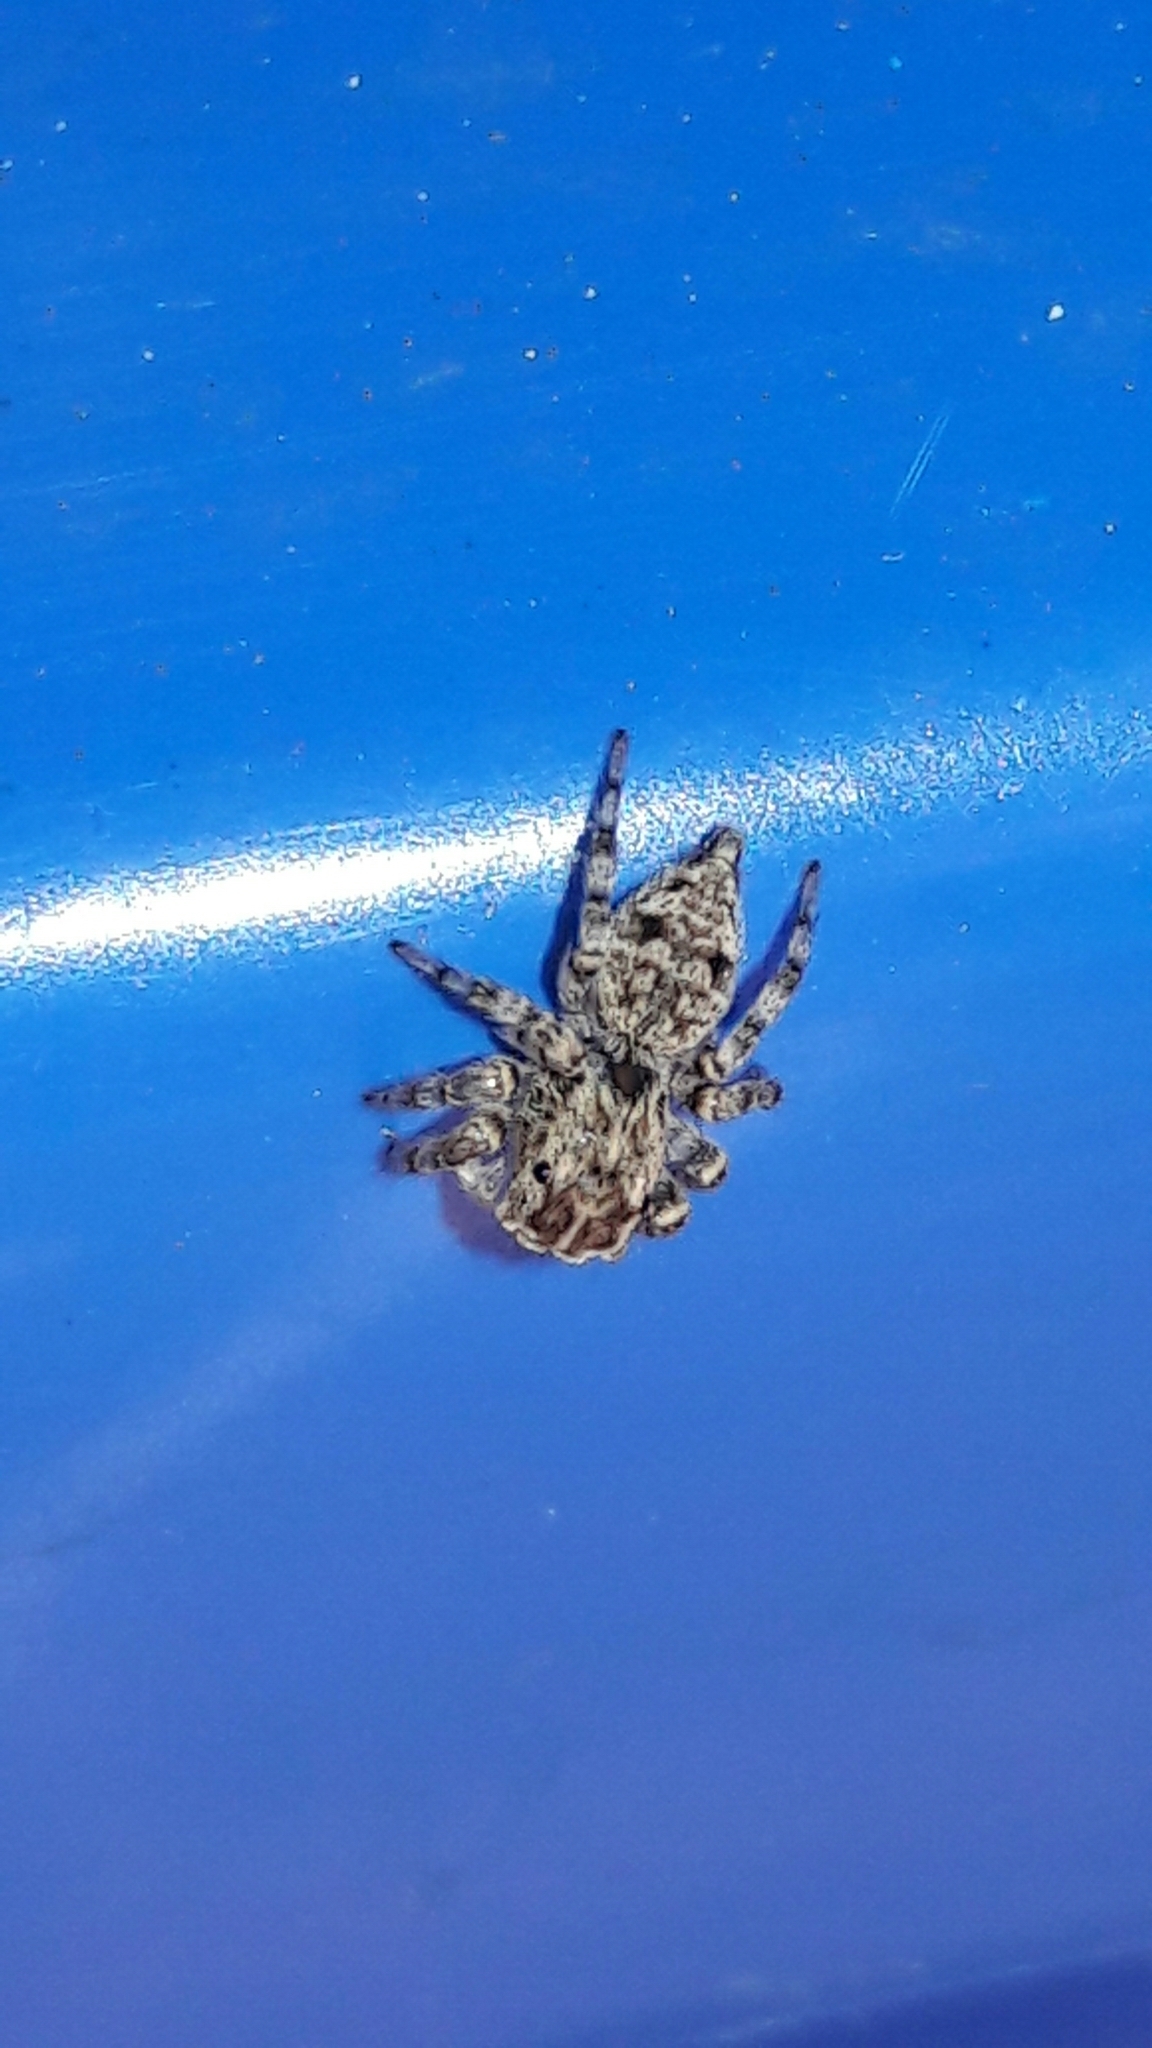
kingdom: Animalia
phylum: Arthropoda
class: Arachnida
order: Araneae
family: Salticidae
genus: Sumampattus
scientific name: Sumampattus quinqueradiatus
